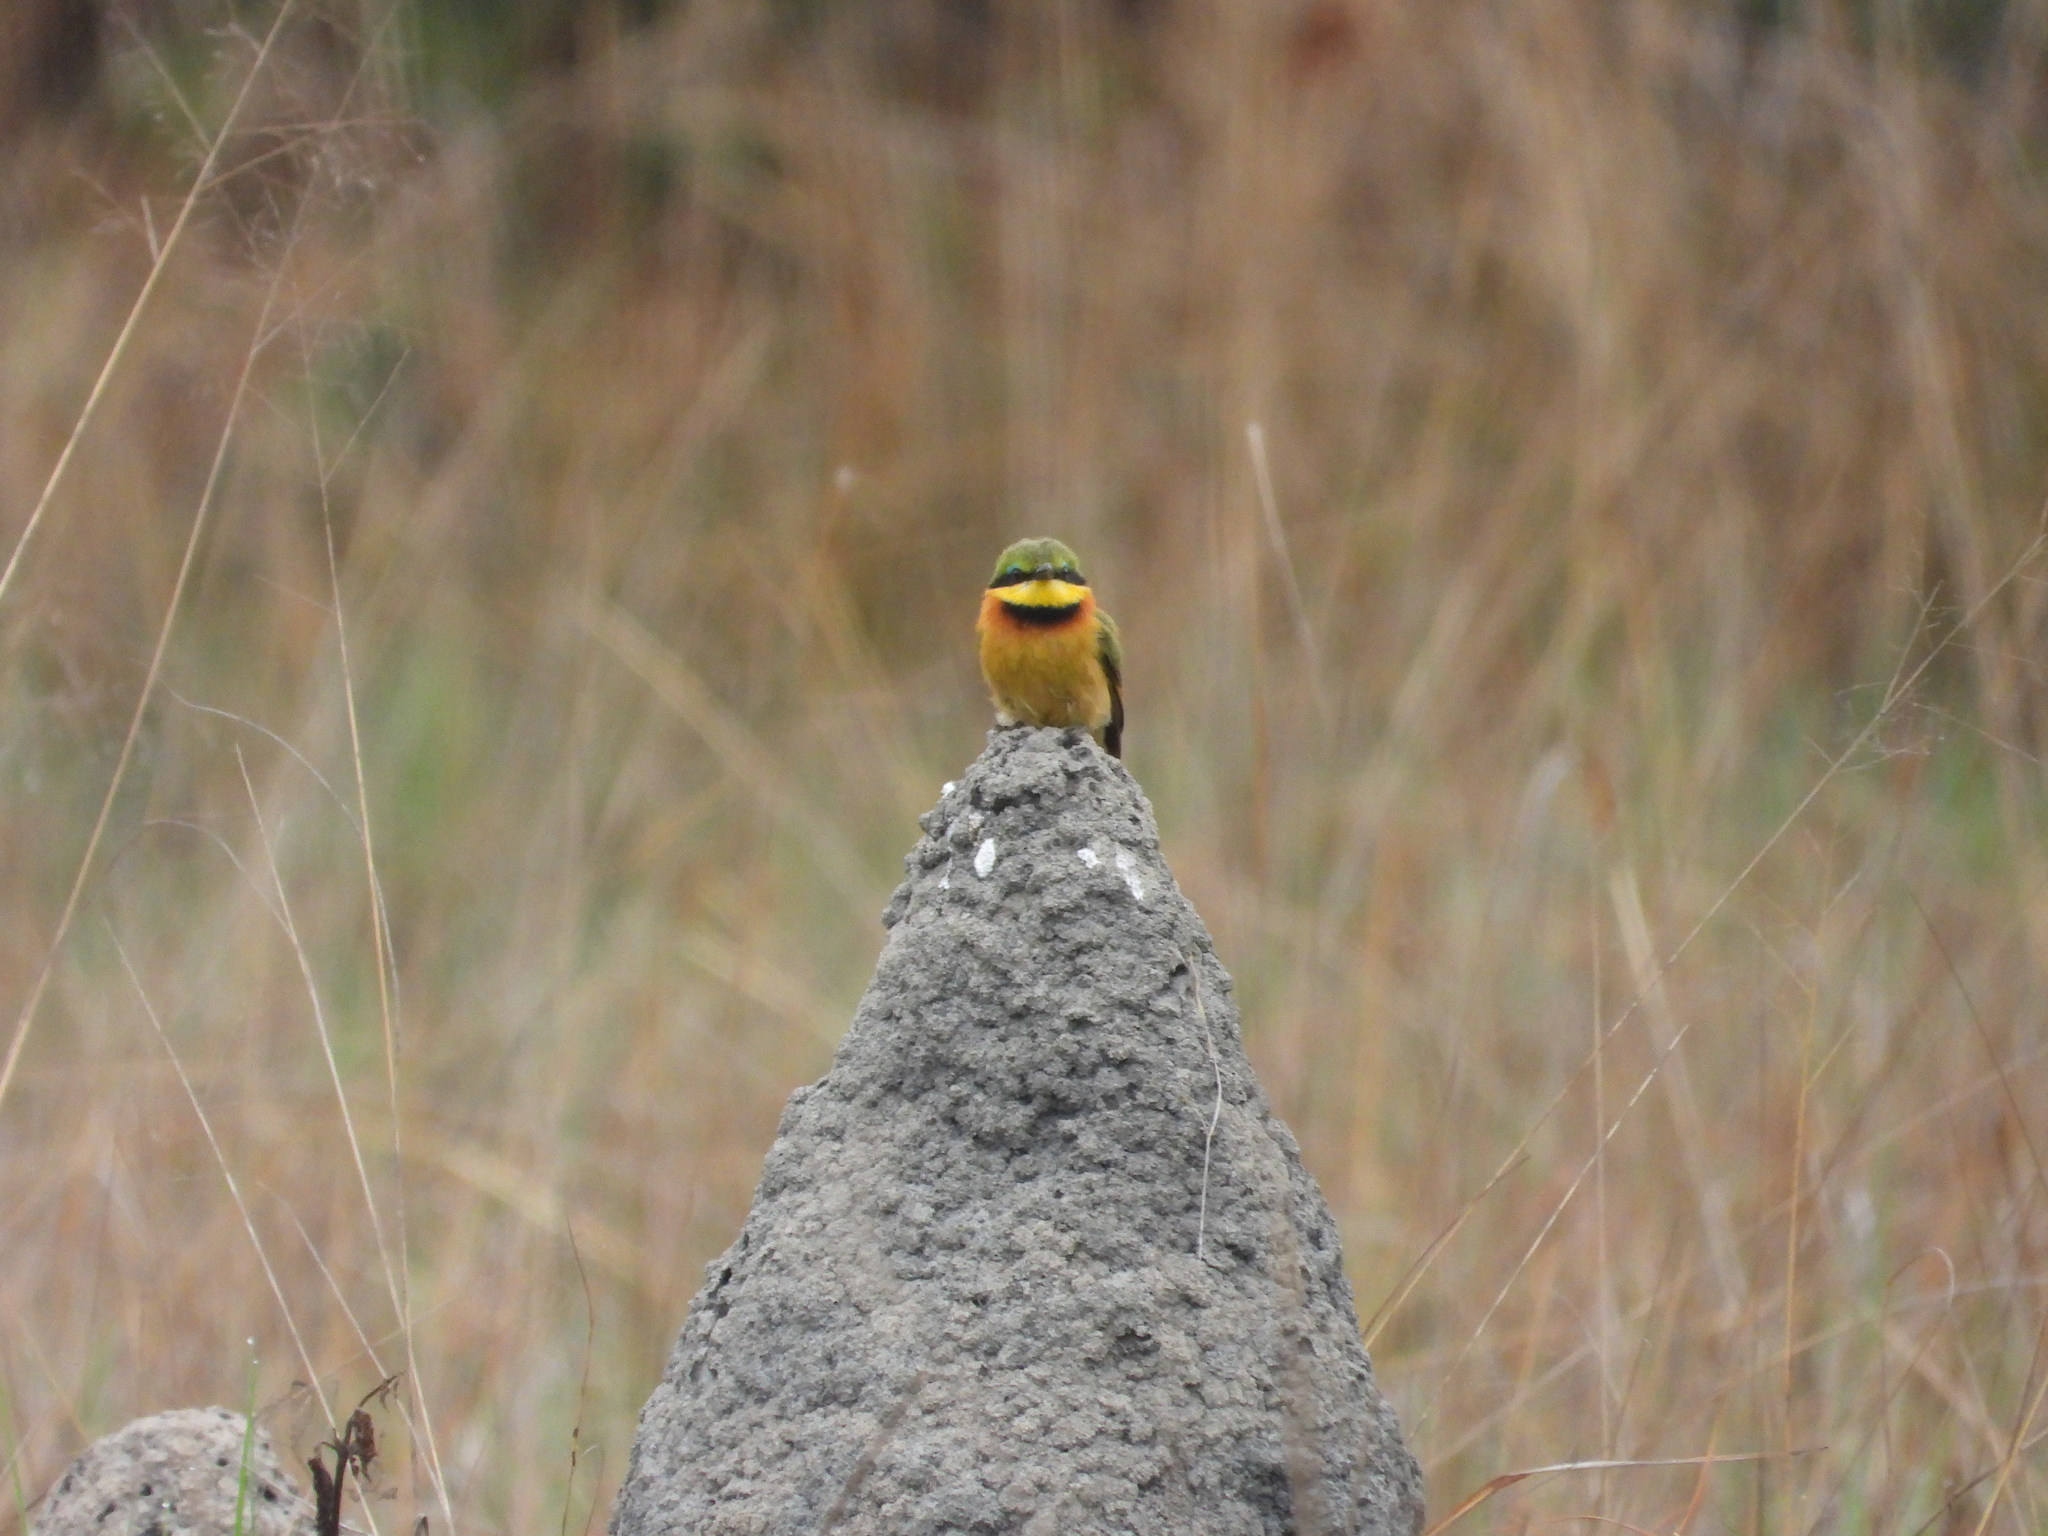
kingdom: Animalia
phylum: Chordata
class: Aves
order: Coraciiformes
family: Meropidae
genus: Merops
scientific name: Merops pusillus
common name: Little bee-eater
